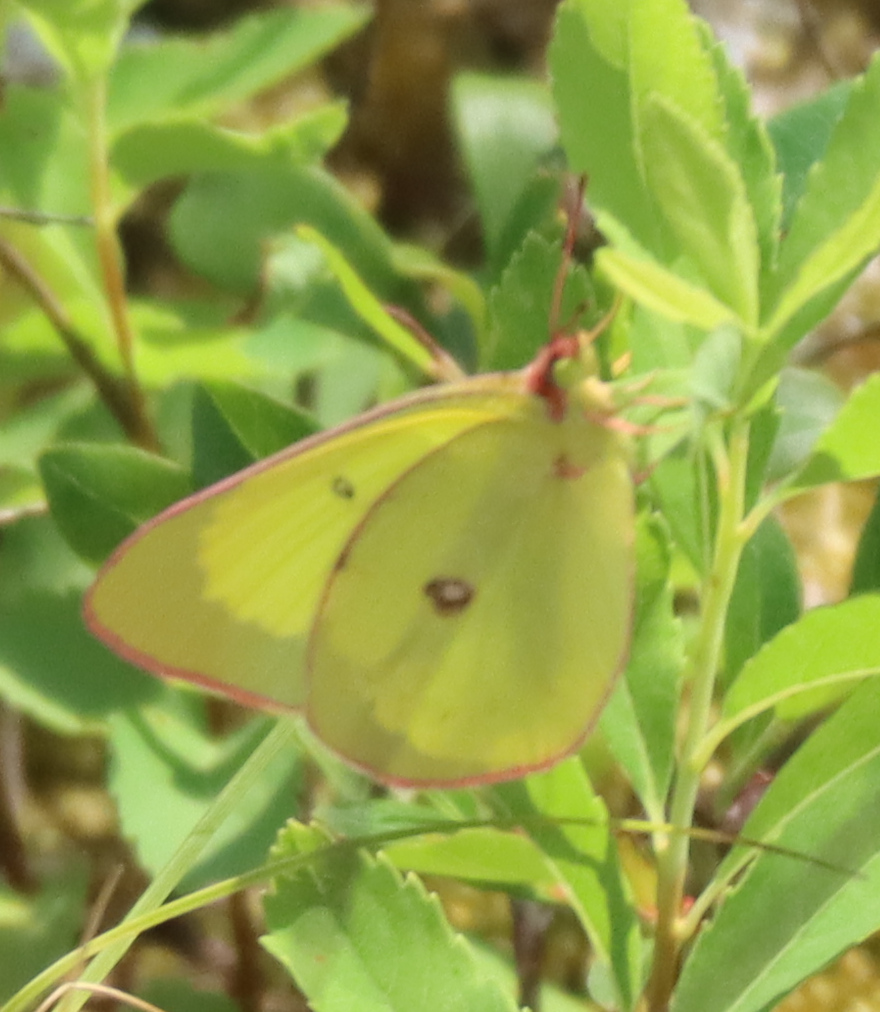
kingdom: Animalia
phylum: Arthropoda
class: Insecta
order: Lepidoptera
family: Pieridae
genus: Colias
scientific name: Colias interior
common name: Pink-edged sulphur
